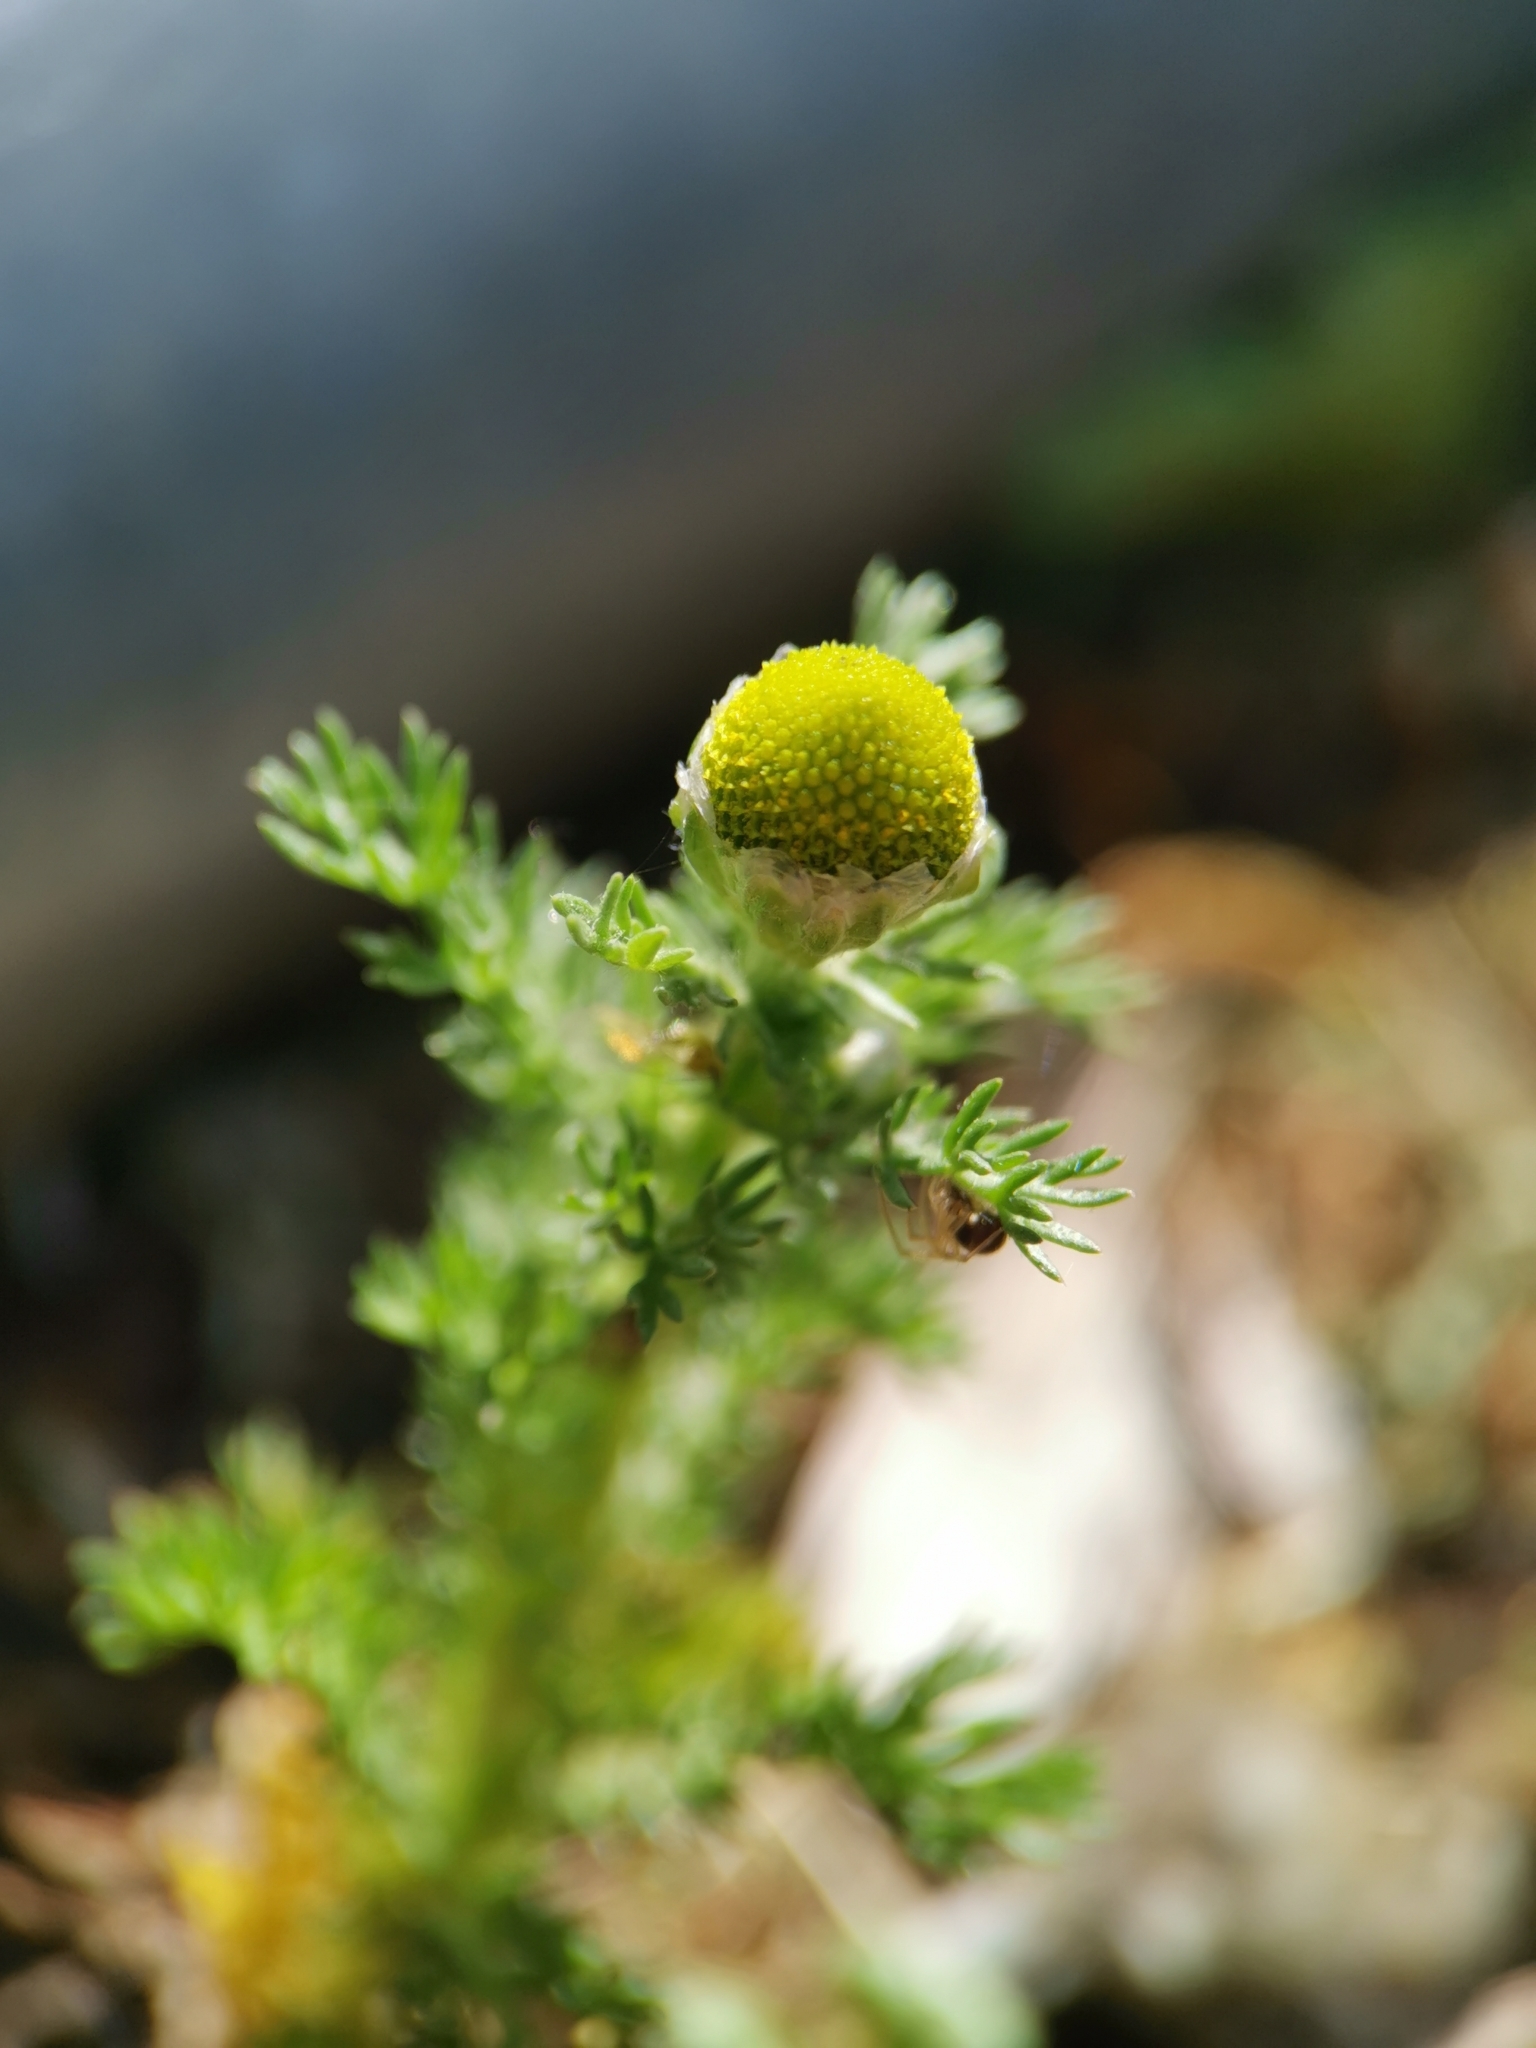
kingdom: Plantae
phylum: Tracheophyta
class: Magnoliopsida
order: Asterales
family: Asteraceae
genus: Matricaria
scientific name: Matricaria discoidea
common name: Disc mayweed
